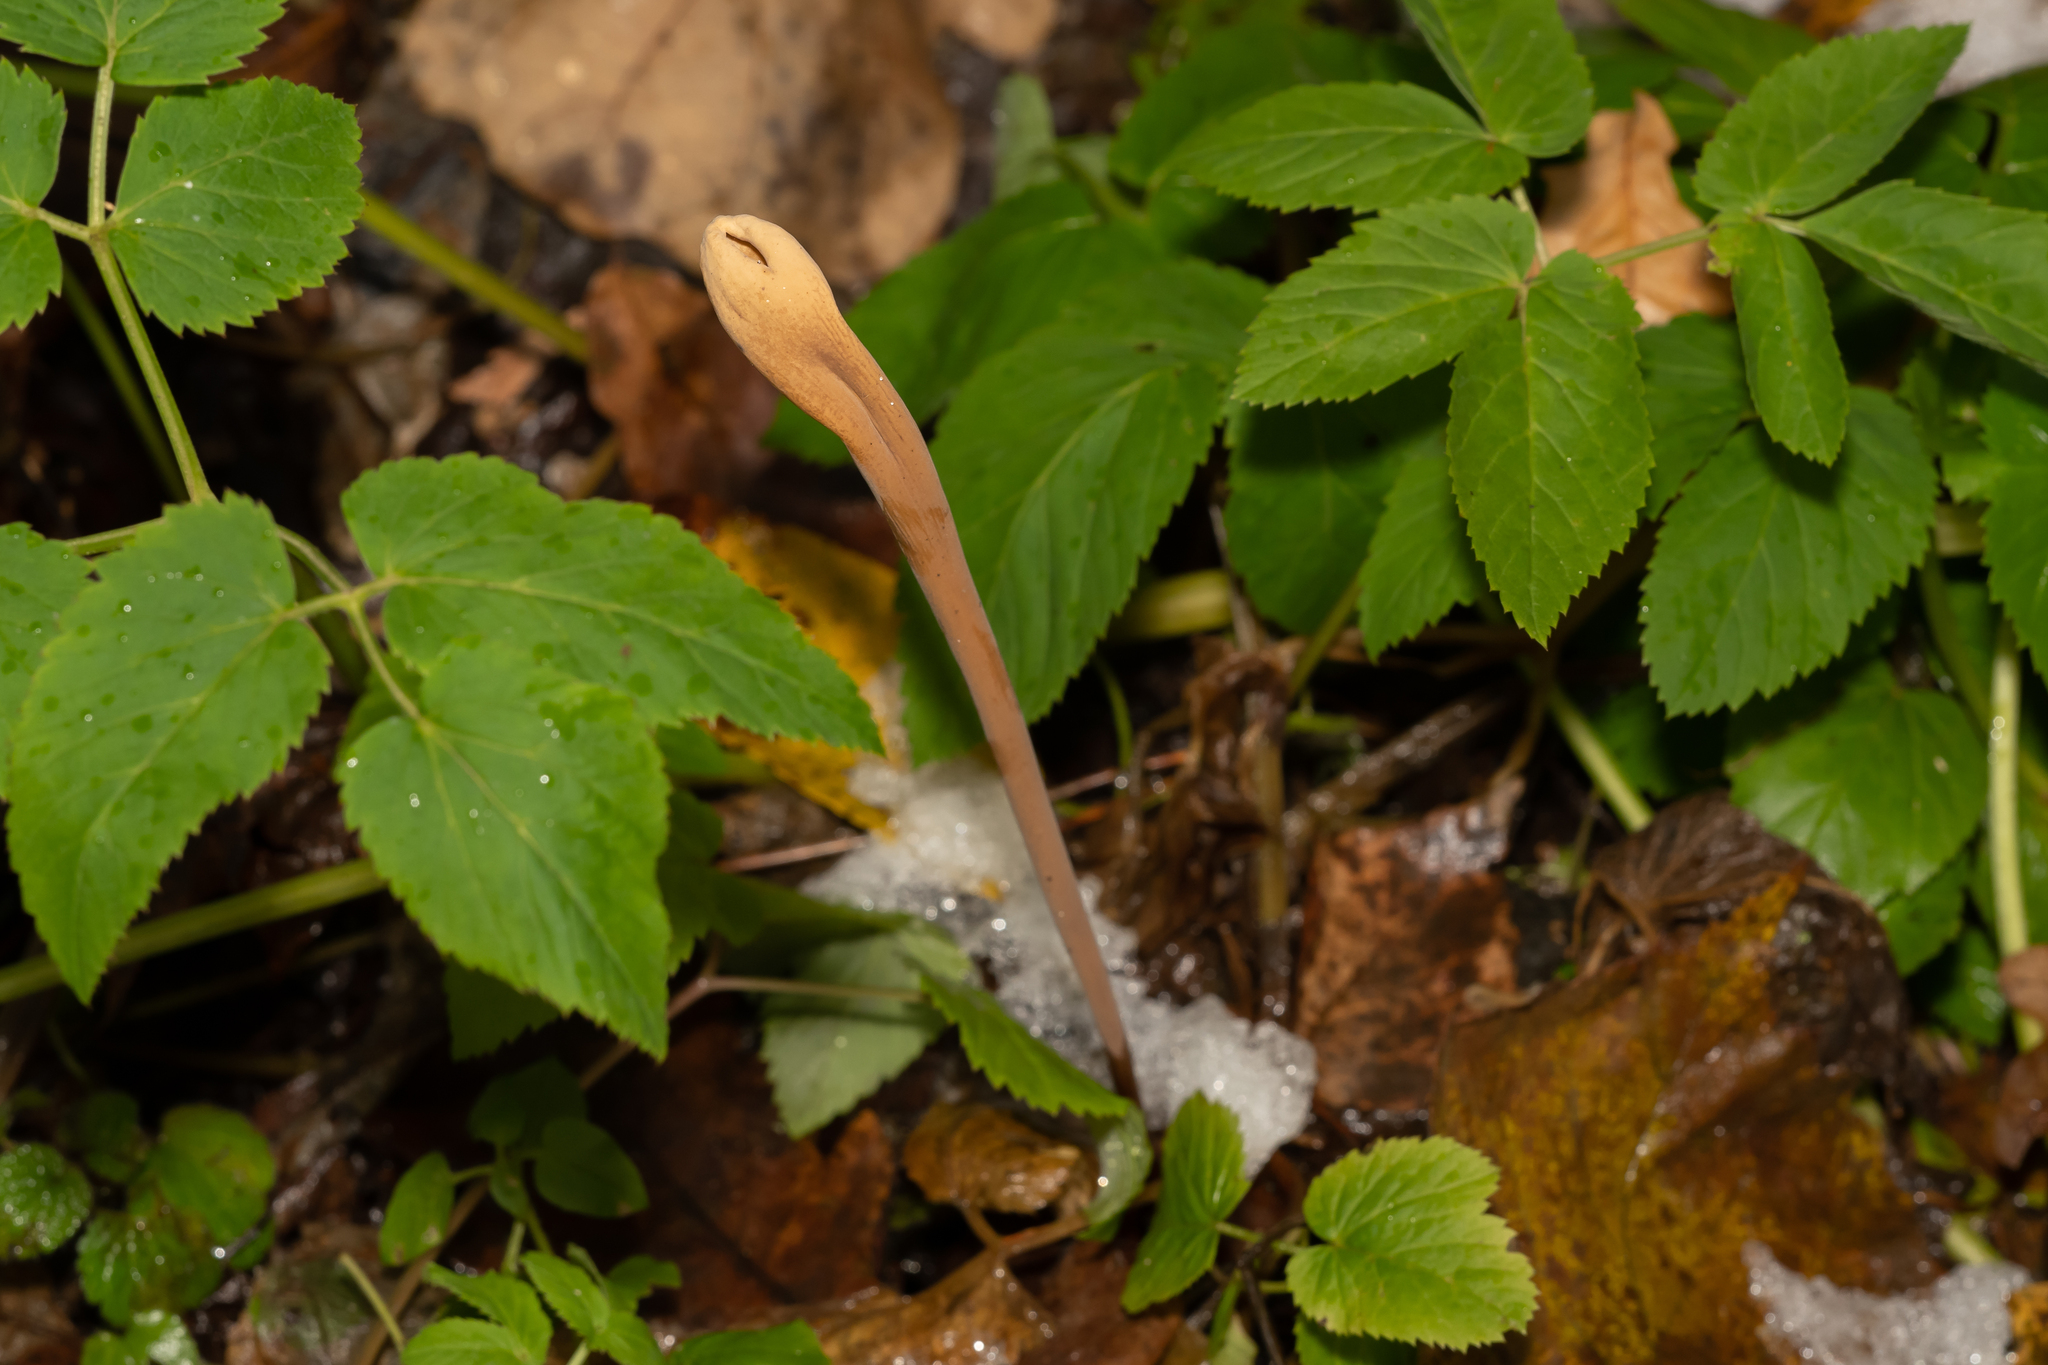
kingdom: Fungi
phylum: Basidiomycota
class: Agaricomycetes
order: Agaricales
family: Typhulaceae
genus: Typhula
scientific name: Typhula fistulosa
